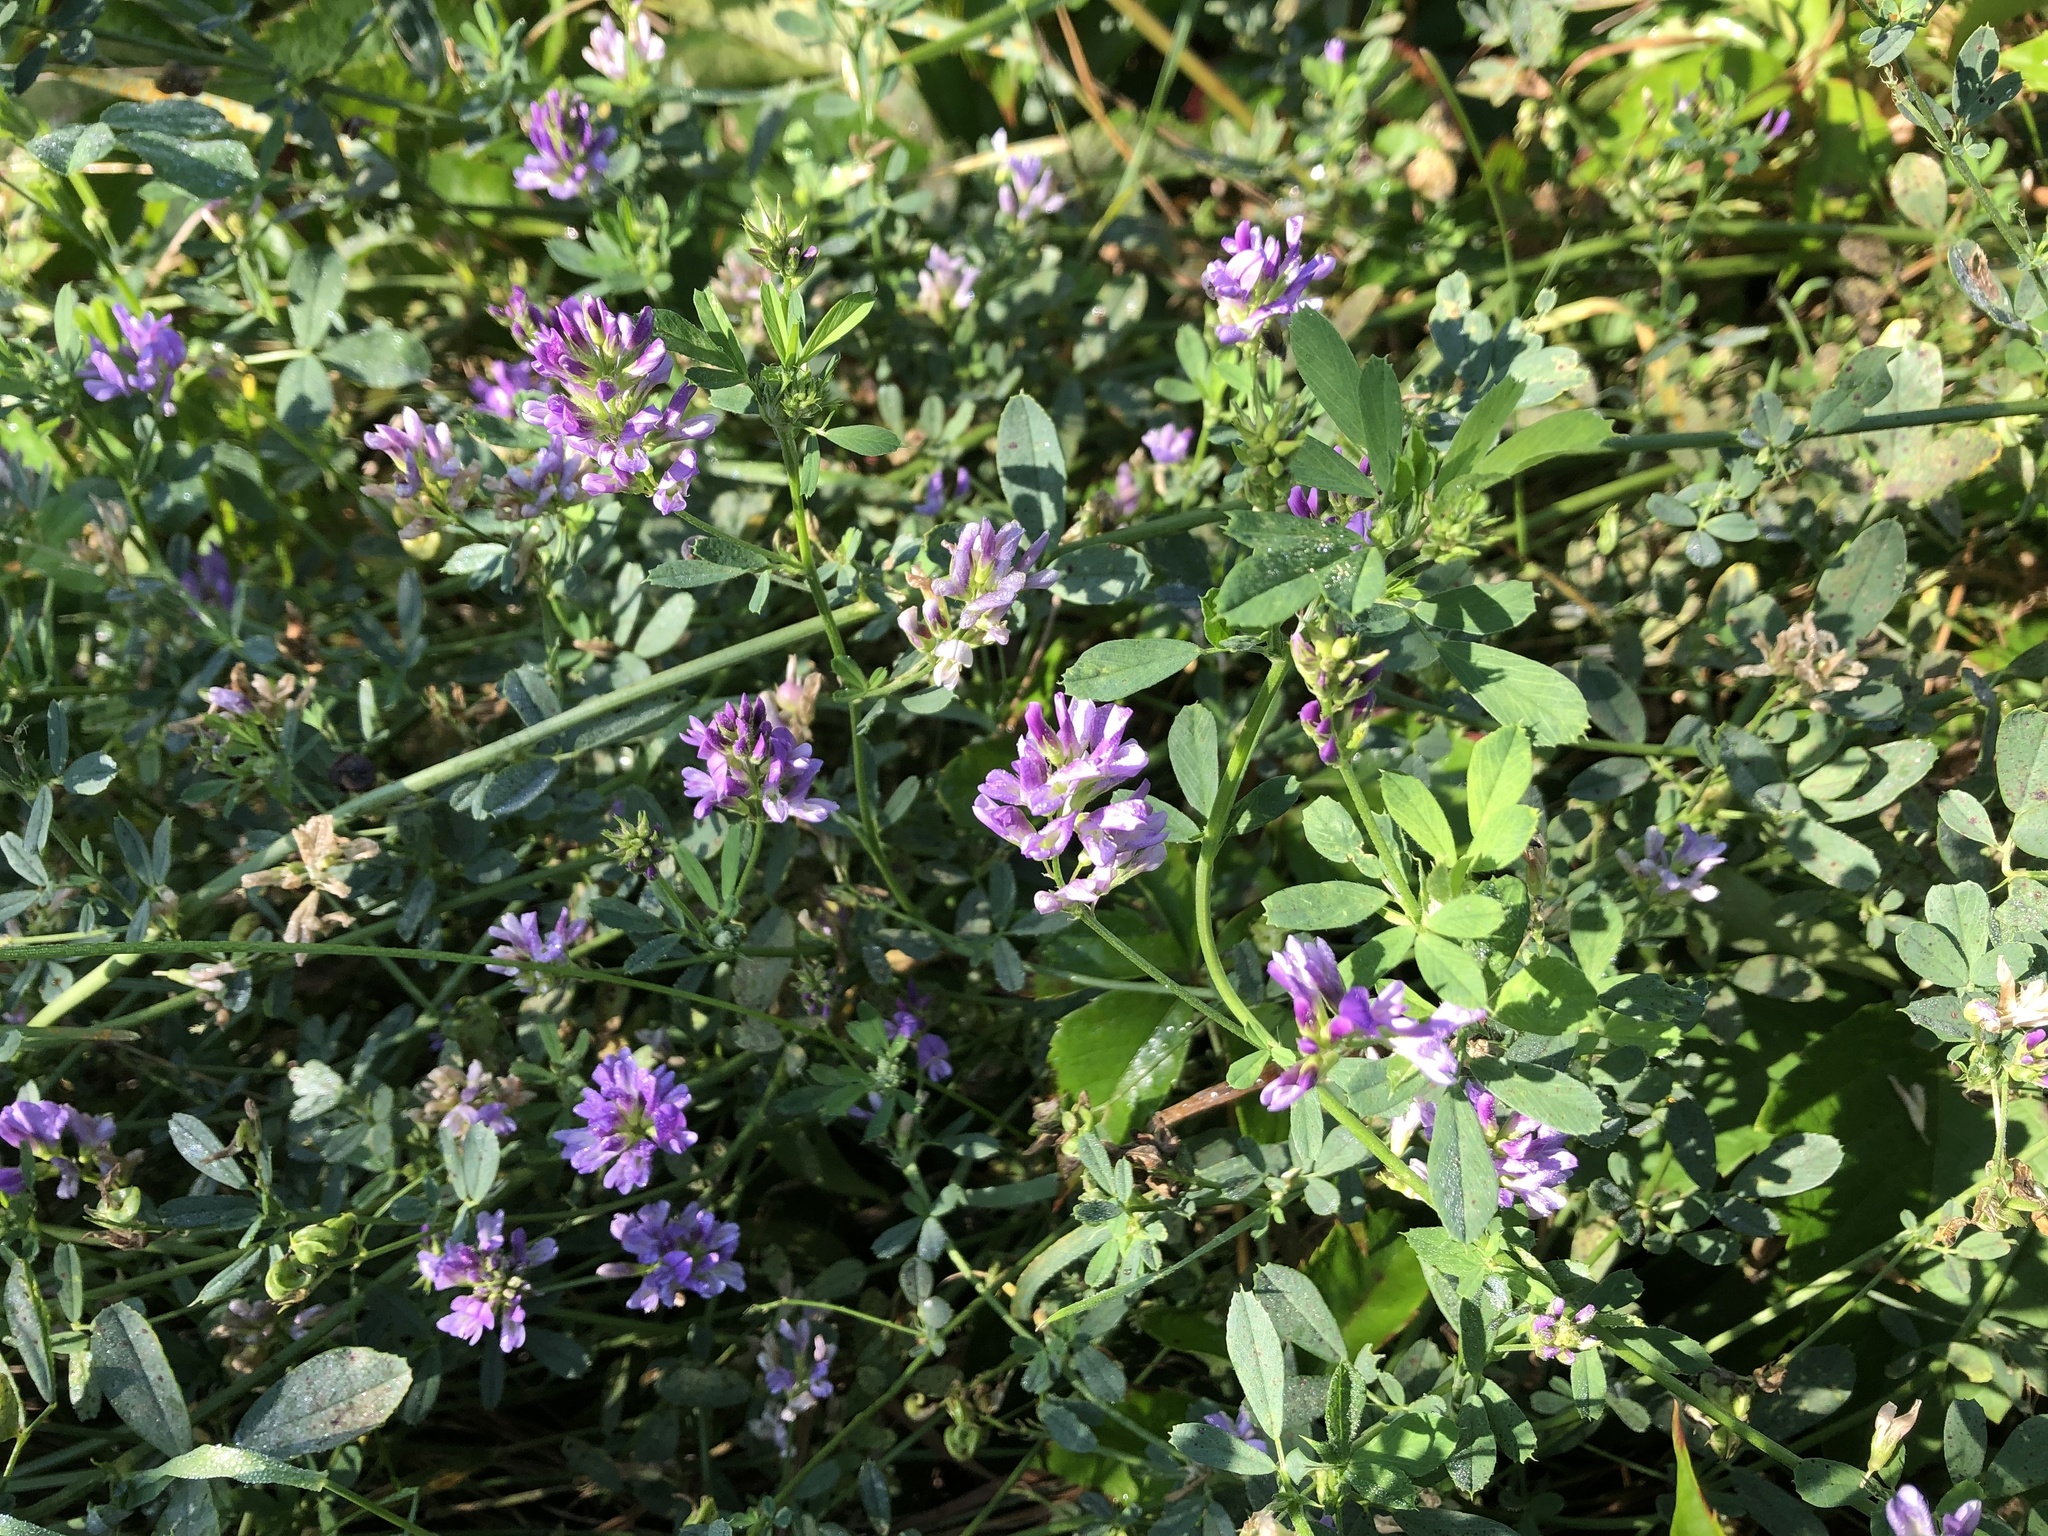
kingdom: Plantae
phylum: Tracheophyta
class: Magnoliopsida
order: Fabales
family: Fabaceae
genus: Medicago
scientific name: Medicago sativa
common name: Alfalfa
